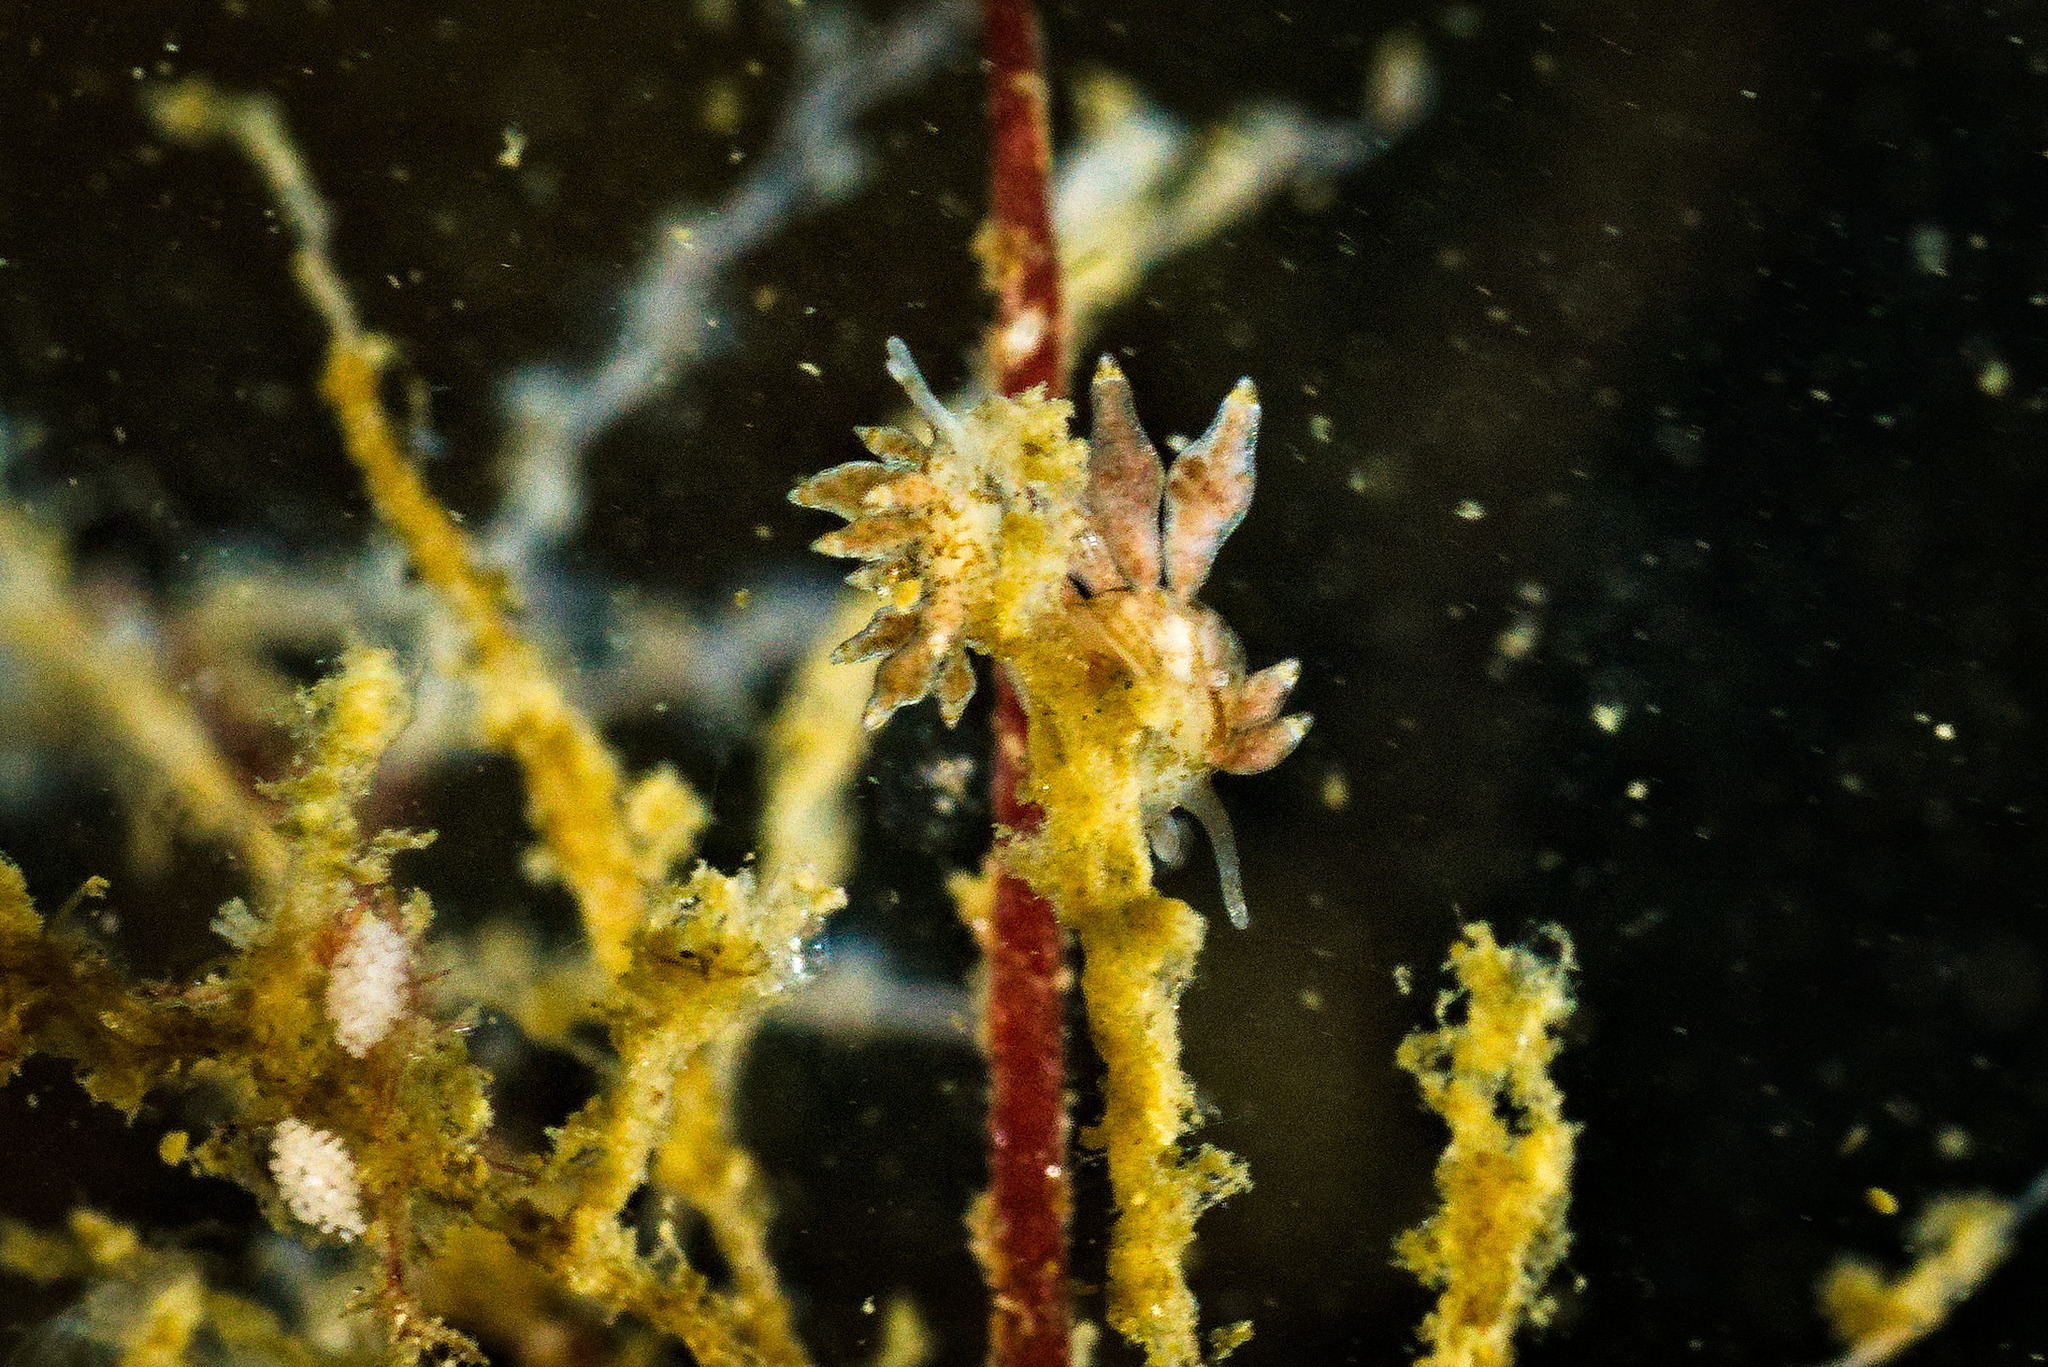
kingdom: Animalia
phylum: Mollusca
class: Gastropoda
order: Nudibranchia
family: Eubranchidae
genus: Eubranchus
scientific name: Eubranchus exiguus
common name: Balloon aeolis
